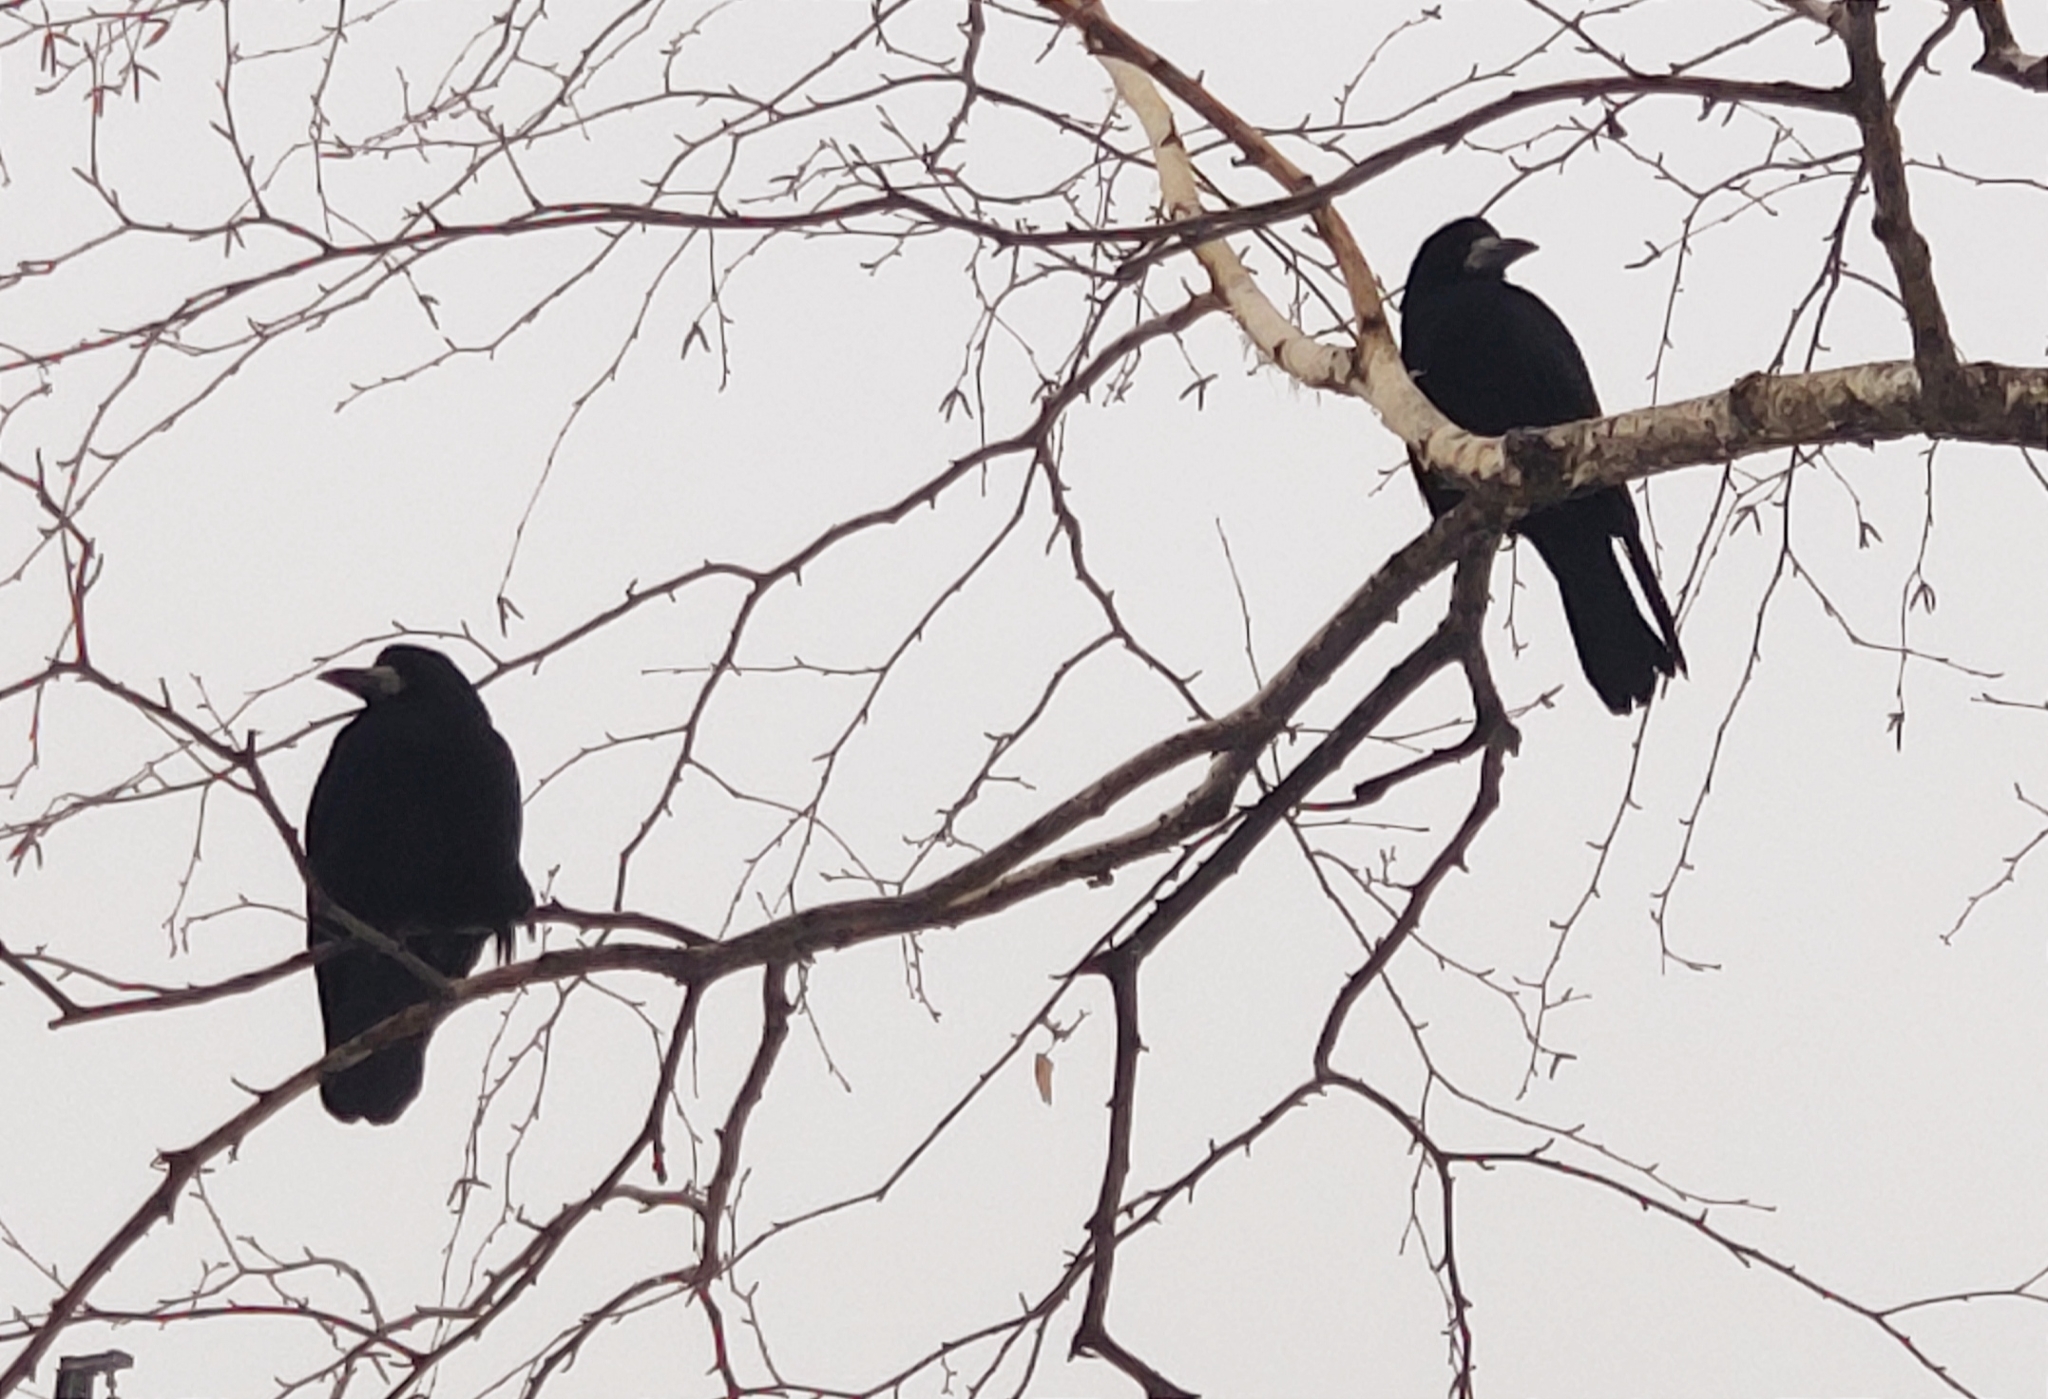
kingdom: Animalia
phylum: Chordata
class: Aves
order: Passeriformes
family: Corvidae
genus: Corvus
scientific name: Corvus frugilegus
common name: Rook
